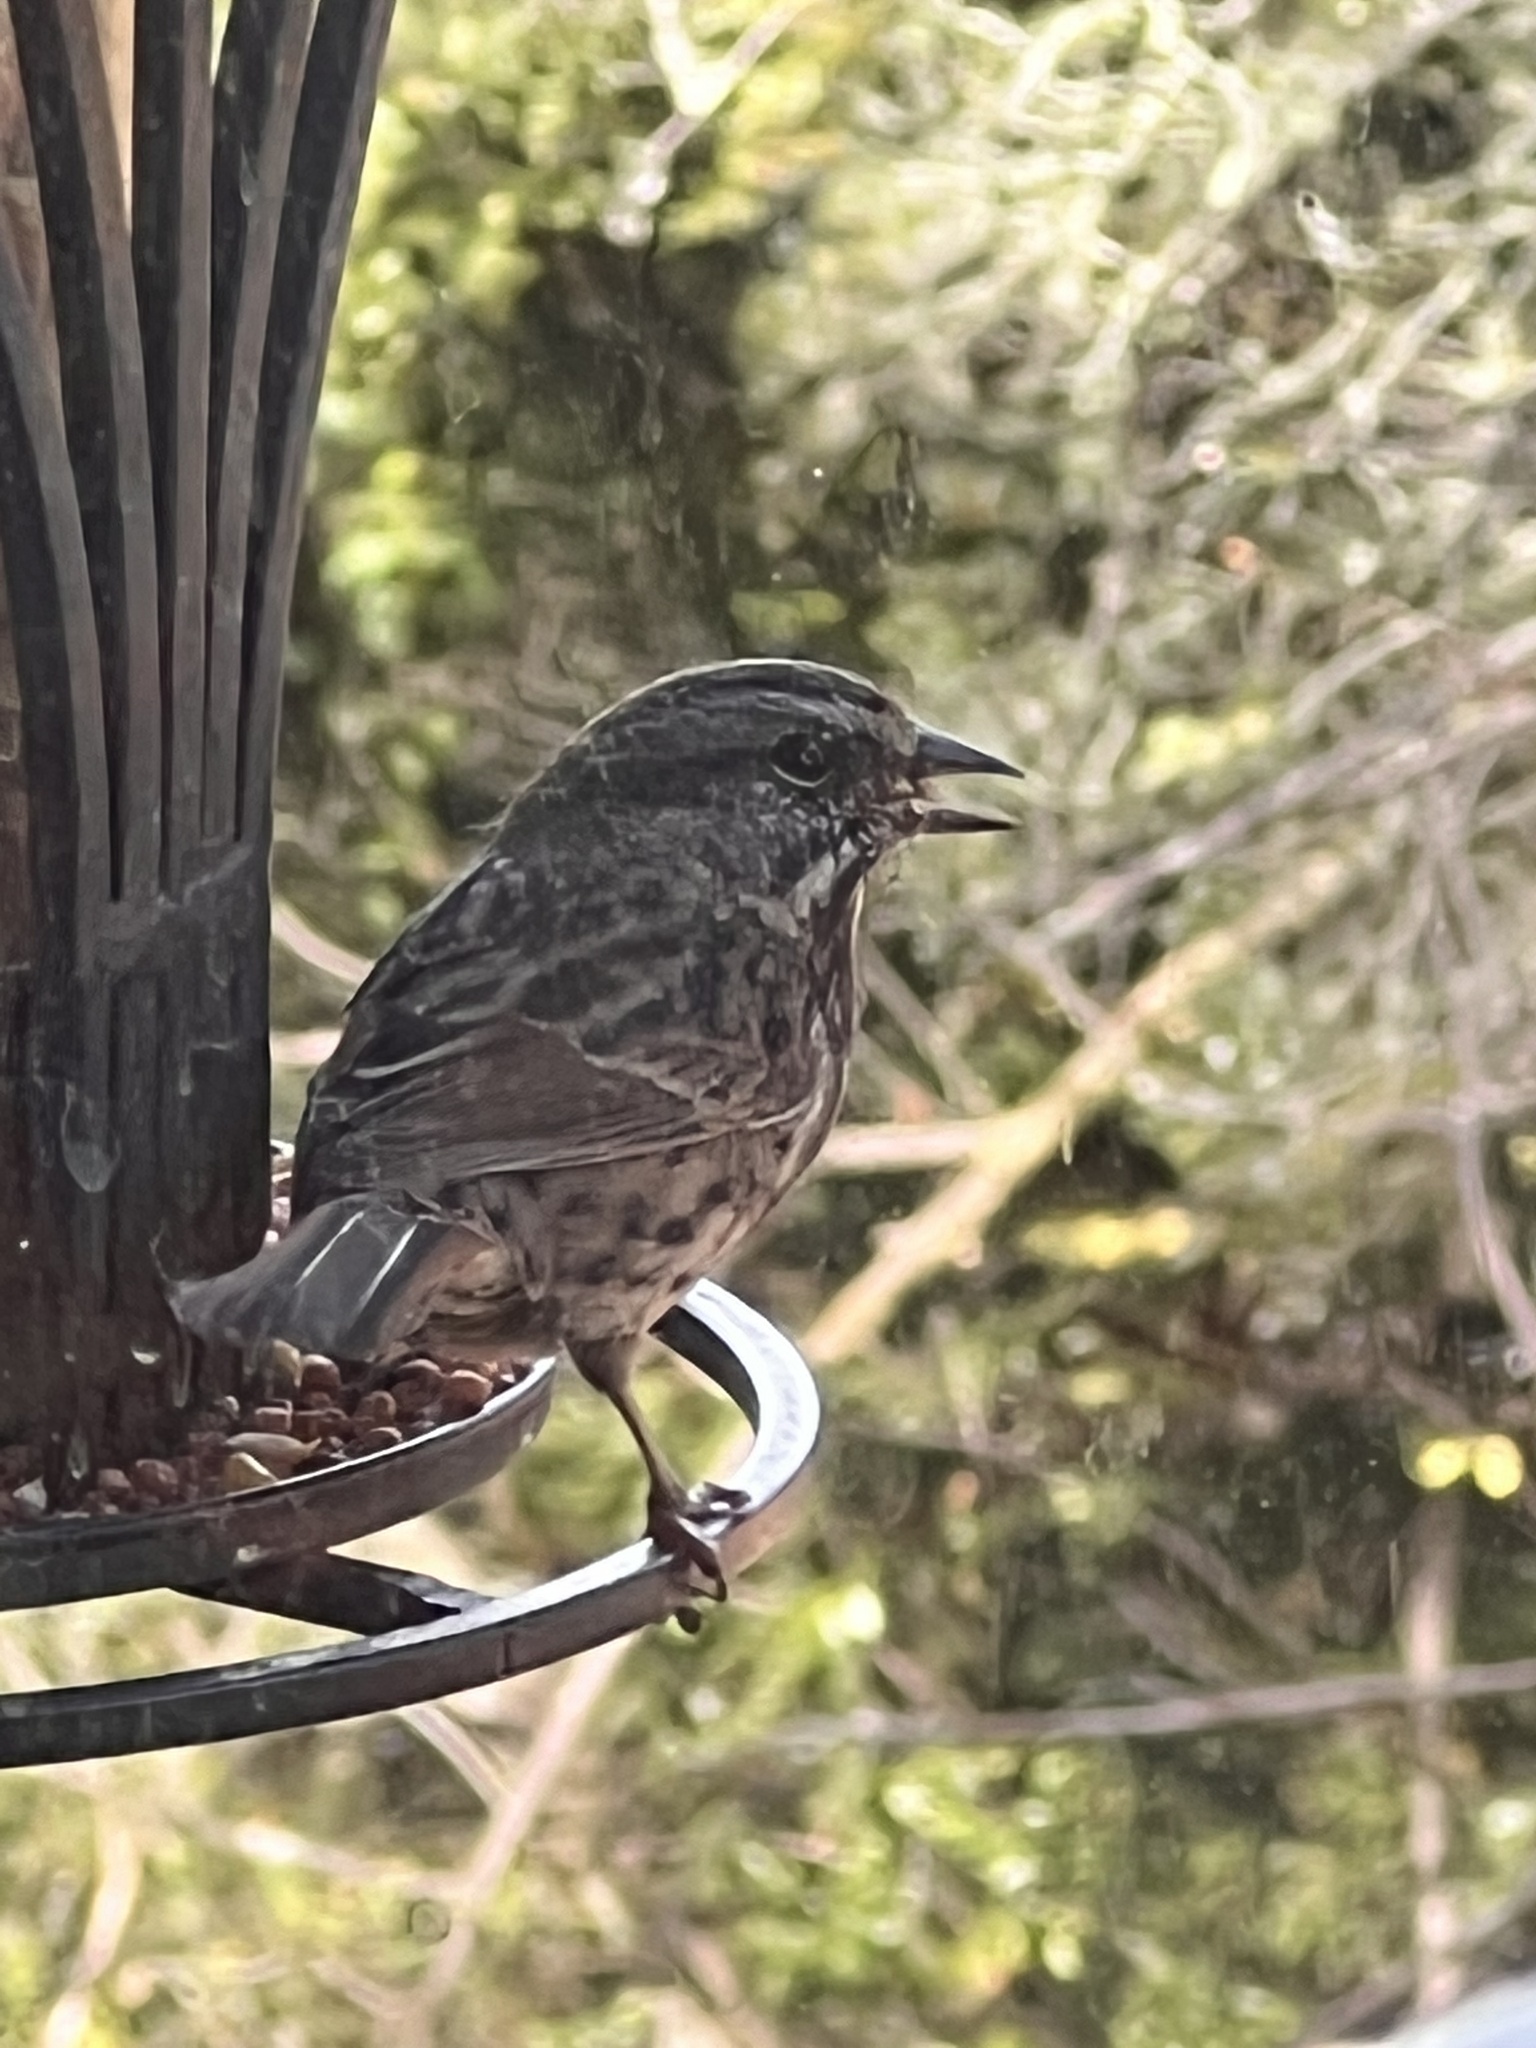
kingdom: Animalia
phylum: Chordata
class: Aves
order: Passeriformes
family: Passerellidae
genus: Melospiza
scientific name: Melospiza melodia
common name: Song sparrow
